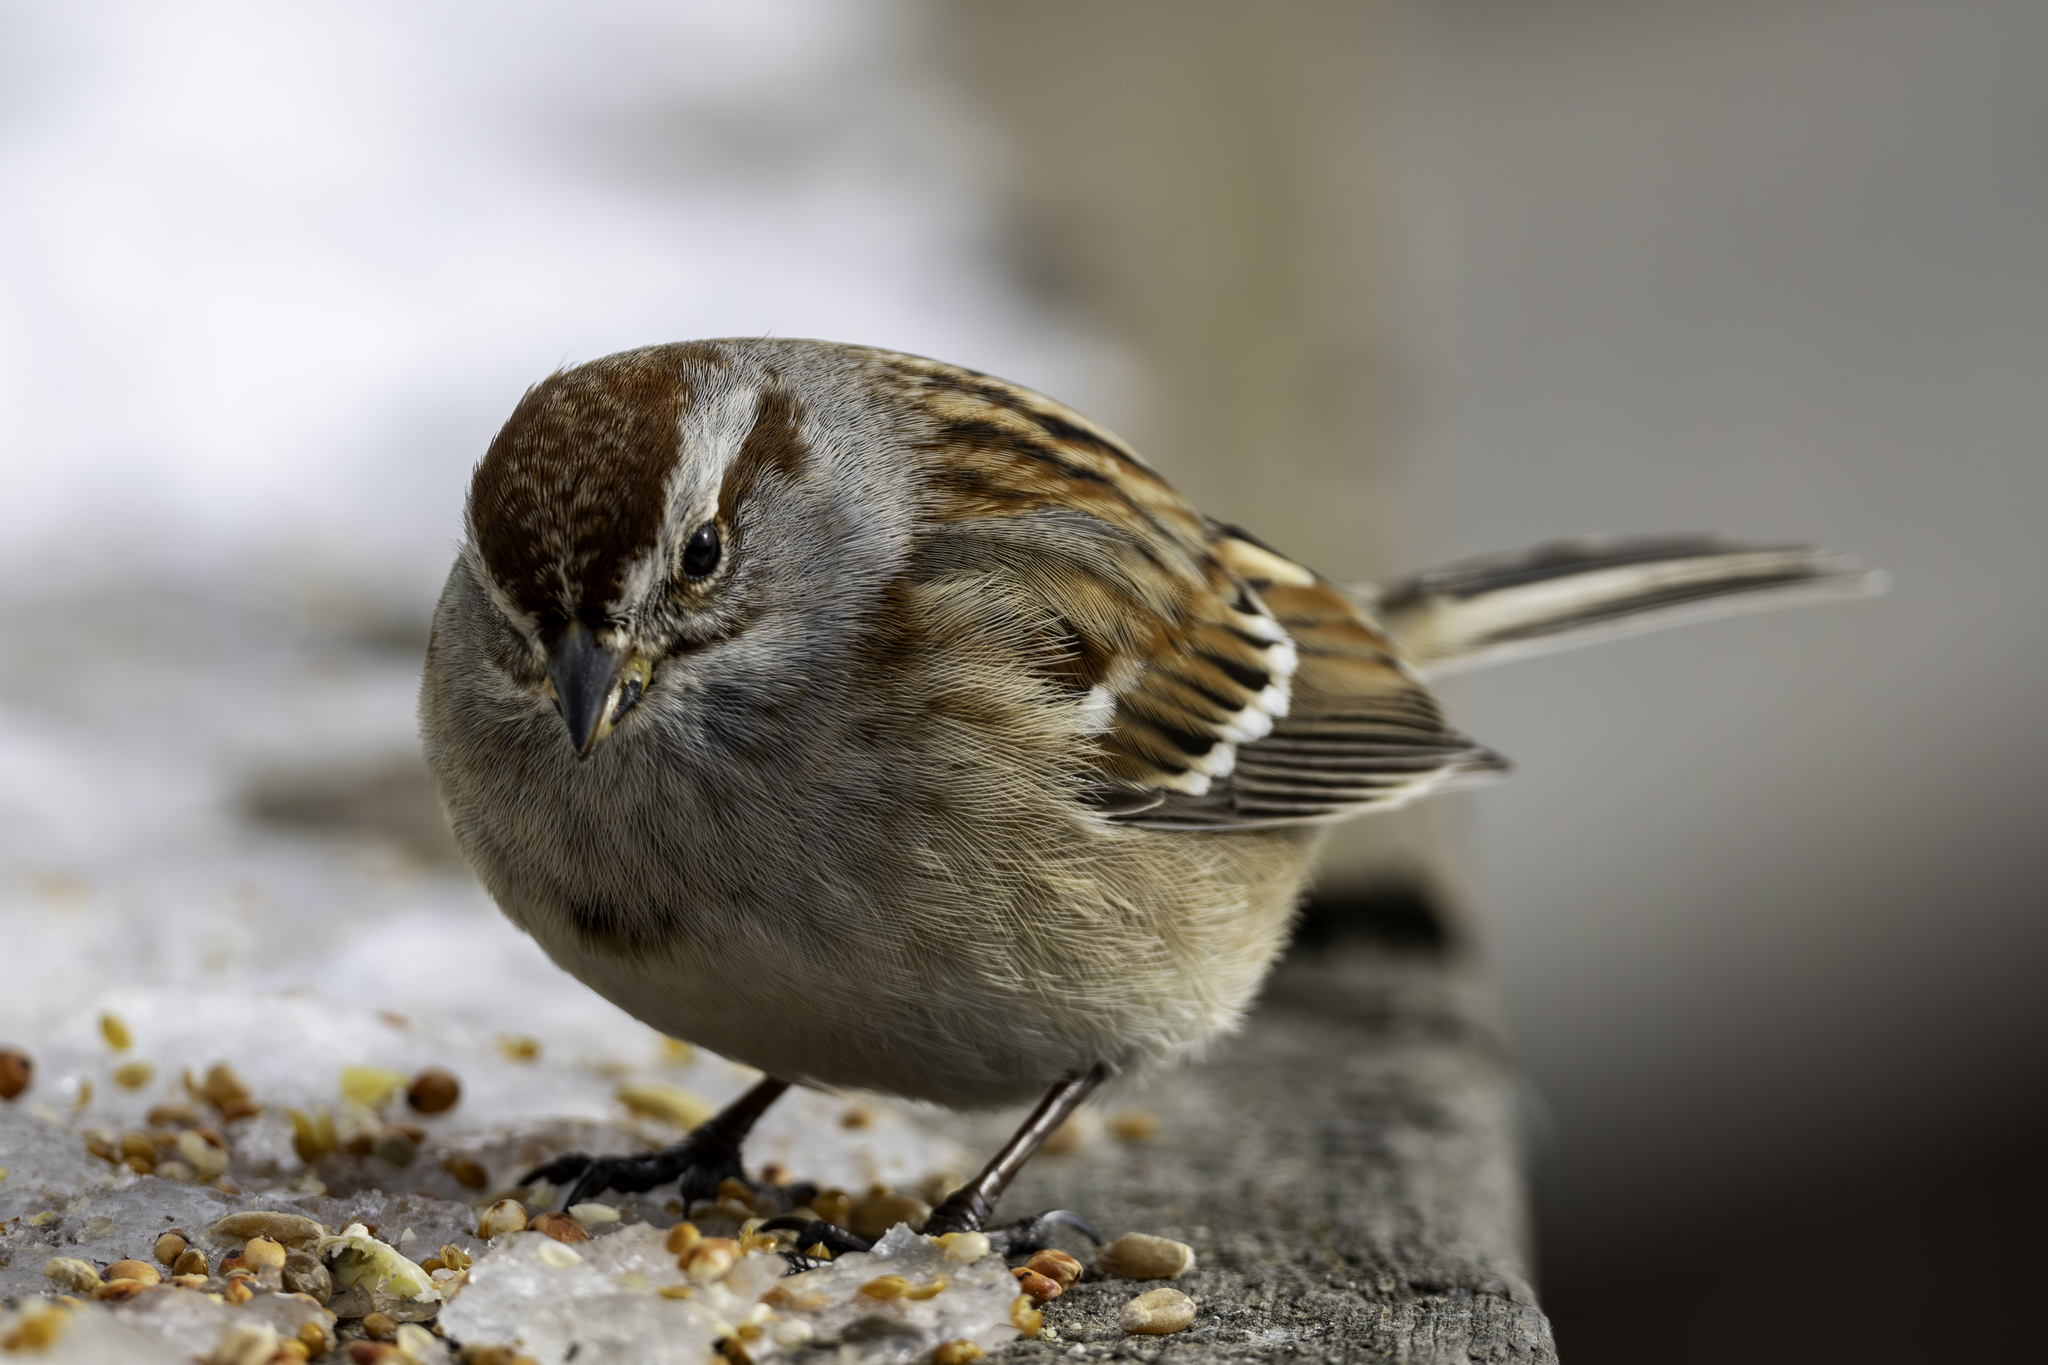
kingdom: Animalia
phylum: Chordata
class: Aves
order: Passeriformes
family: Passerellidae
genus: Spizelloides
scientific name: Spizelloides arborea
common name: American tree sparrow
